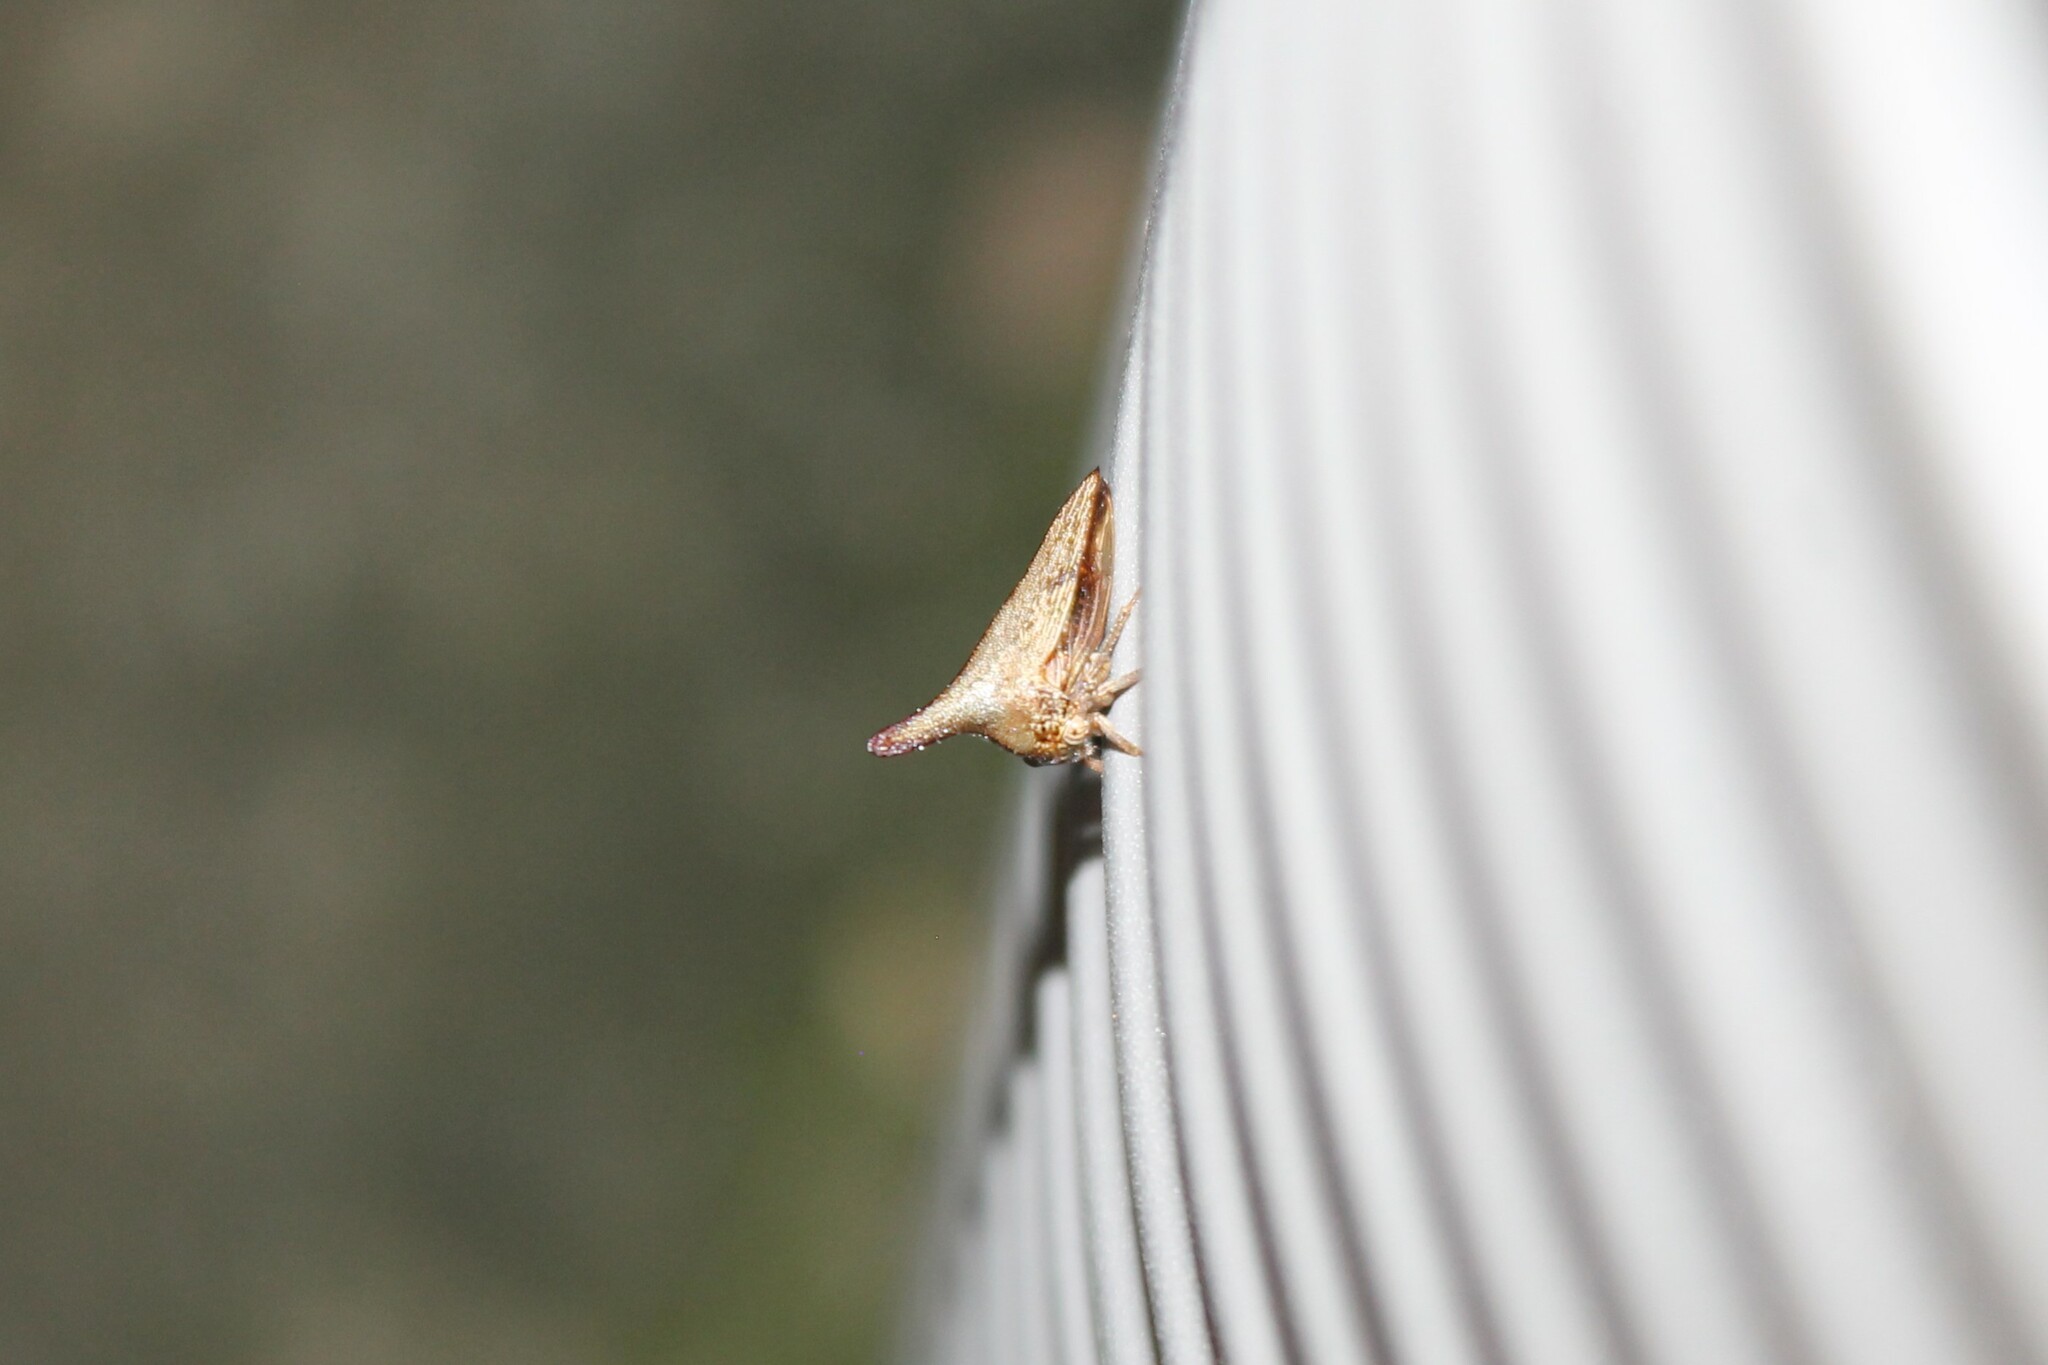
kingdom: Animalia
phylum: Arthropoda
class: Insecta
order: Hemiptera
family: Membracidae
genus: Thelia
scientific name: Thelia bimaculata
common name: Locust treehopper
